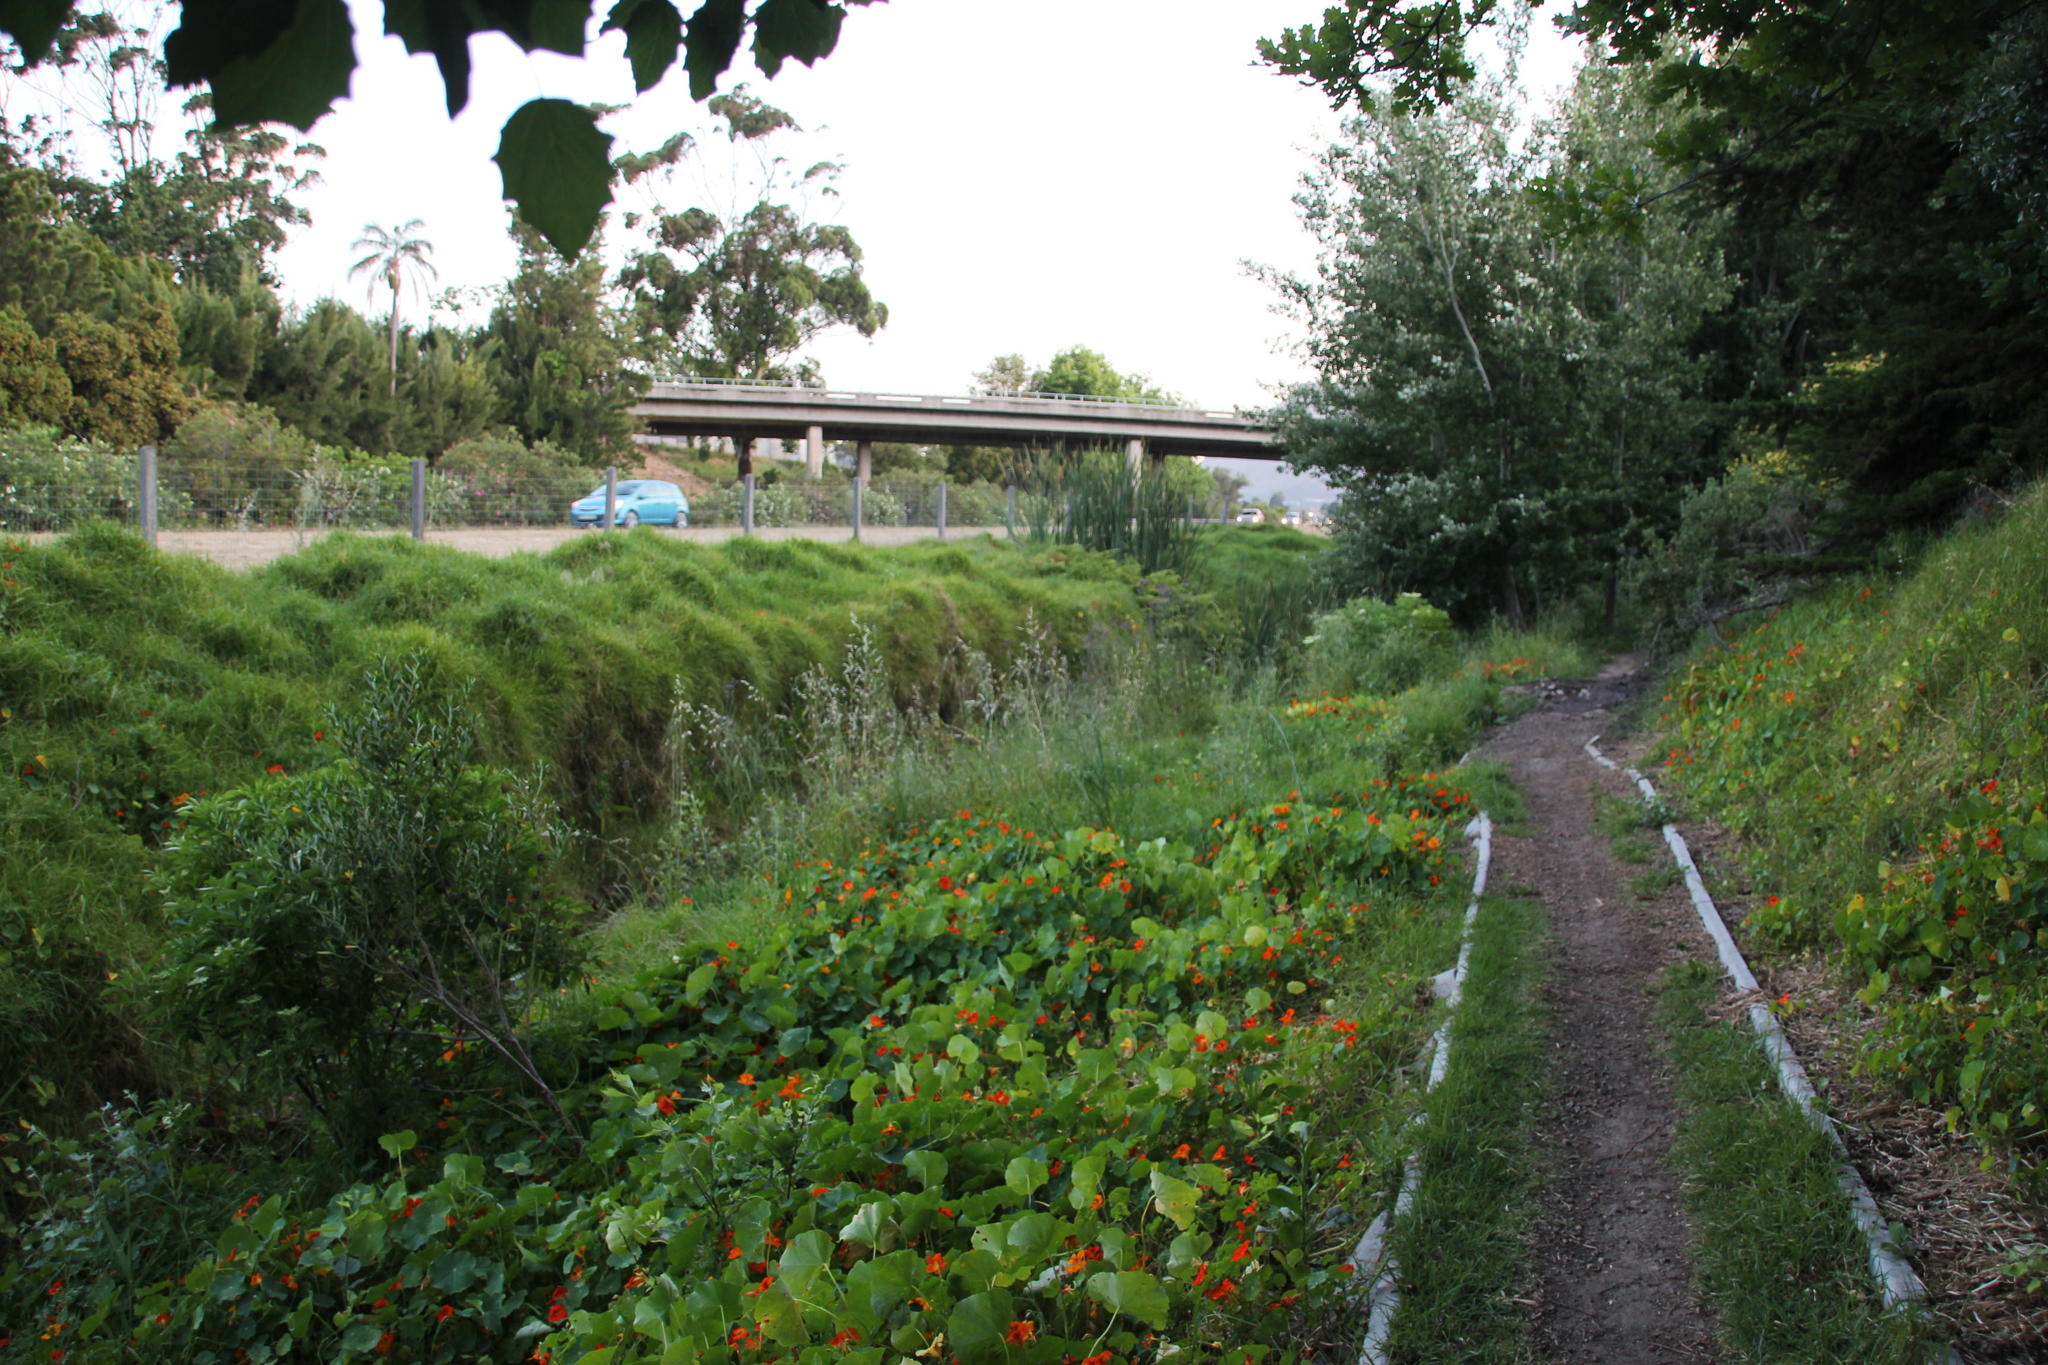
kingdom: Plantae
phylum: Tracheophyta
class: Magnoliopsida
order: Brassicales
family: Tropaeolaceae
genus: Tropaeolum
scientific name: Tropaeolum majus
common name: Nasturtium
